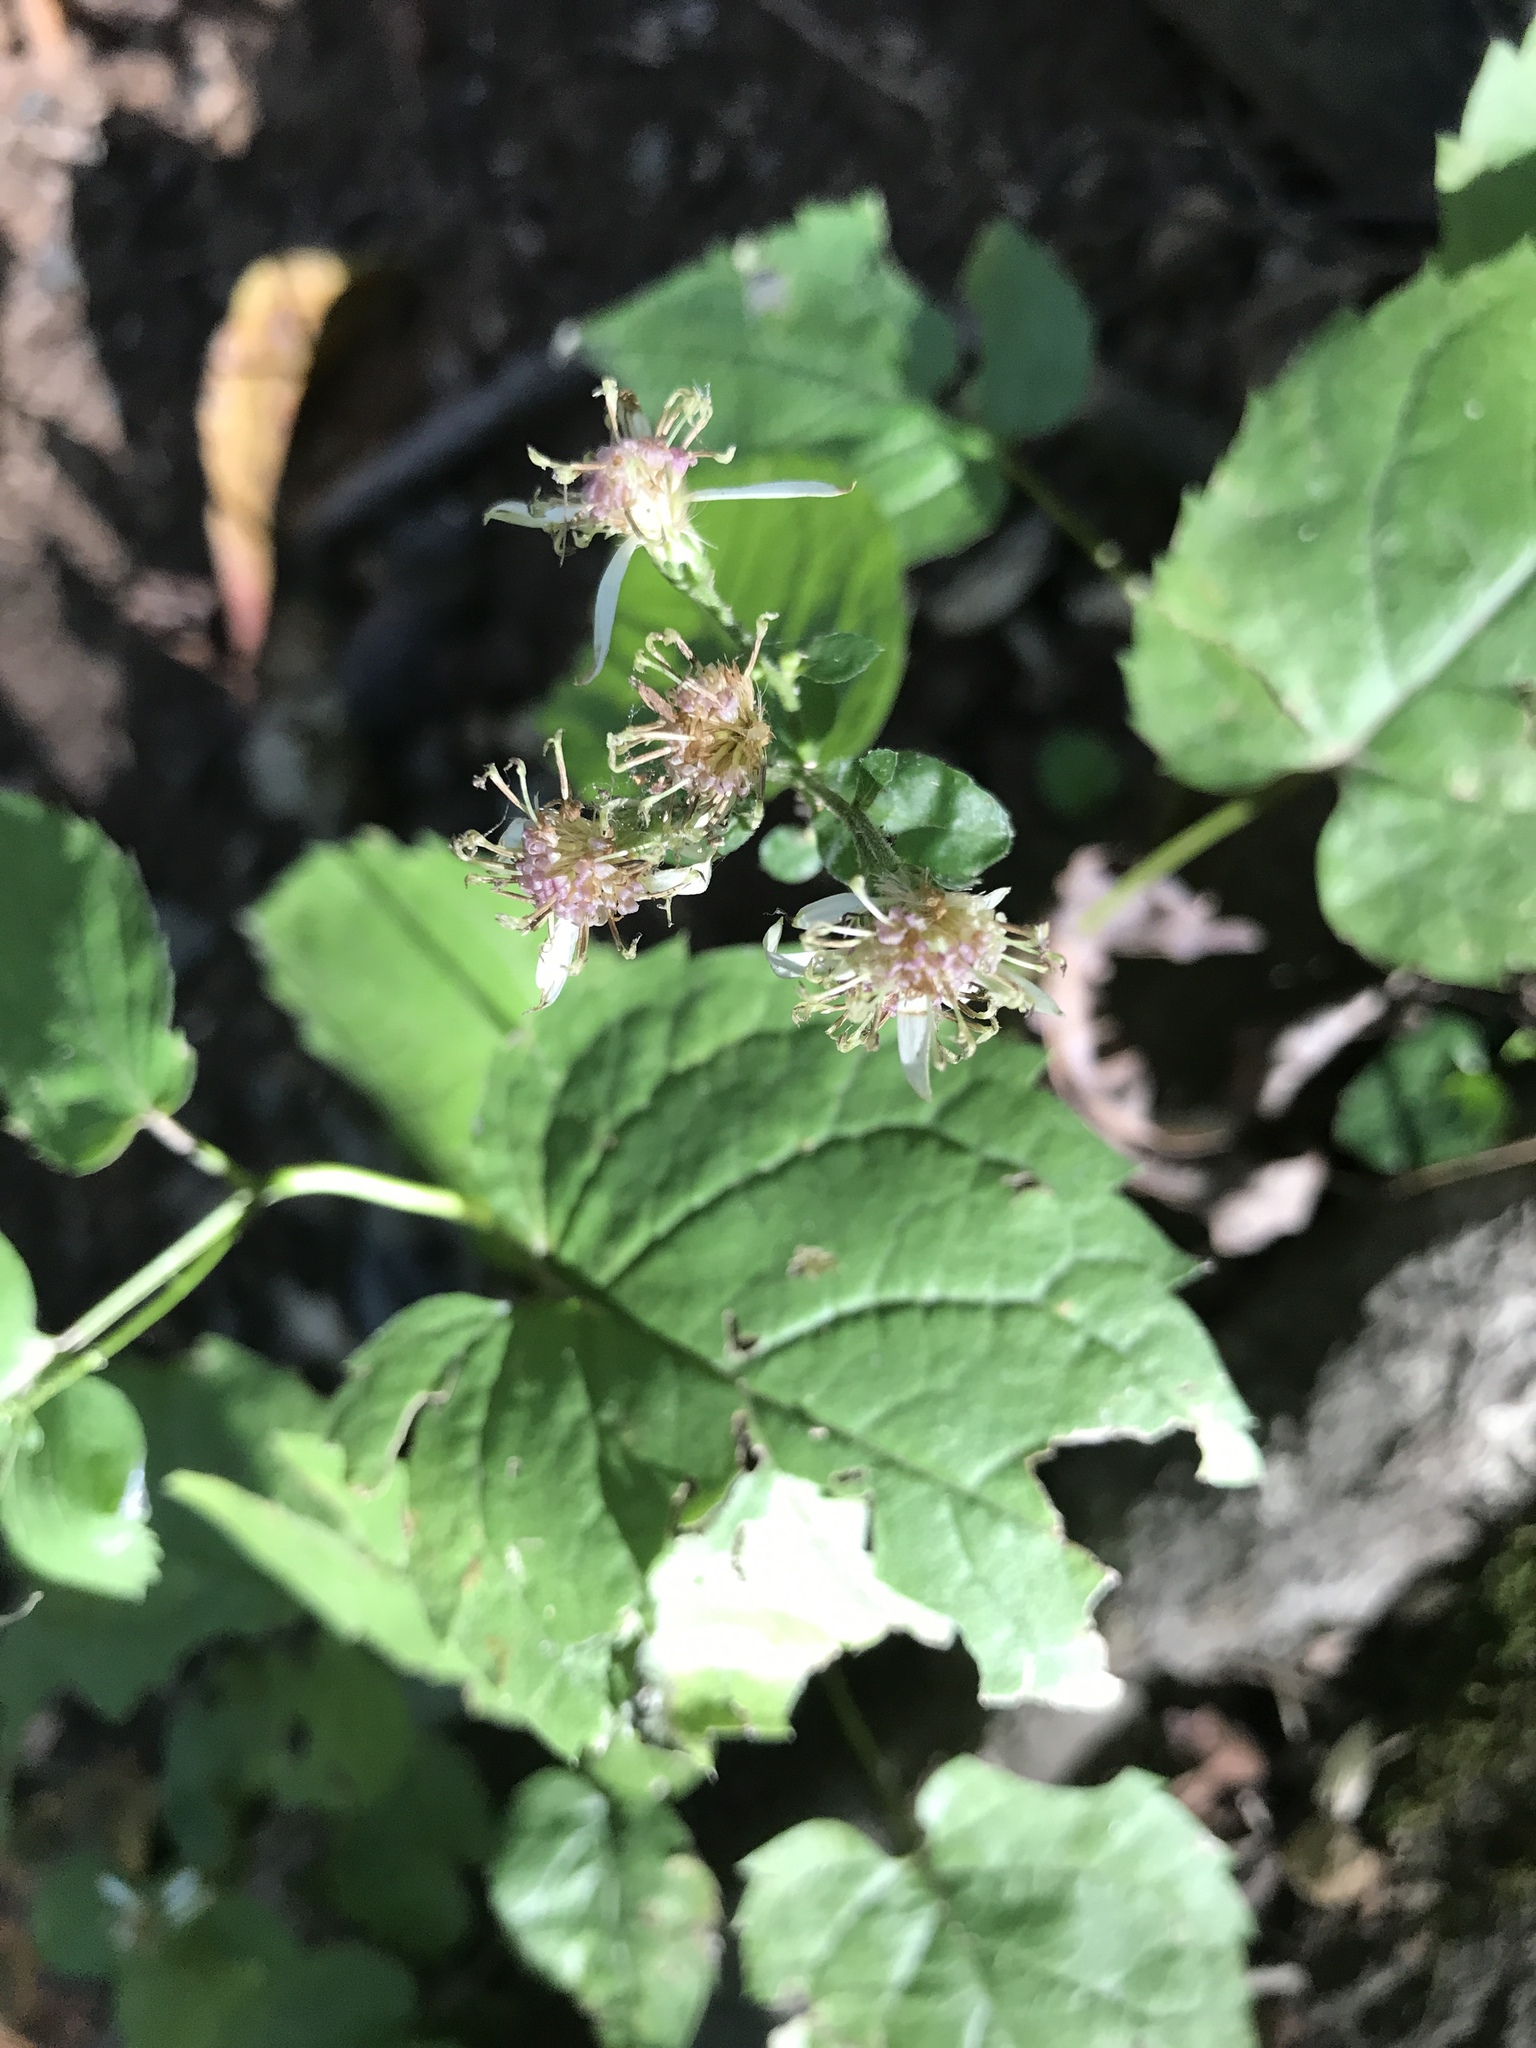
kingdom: Plantae
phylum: Tracheophyta
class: Magnoliopsida
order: Asterales
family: Asteraceae
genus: Eurybia
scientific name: Eurybia divaricata
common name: White wood aster
